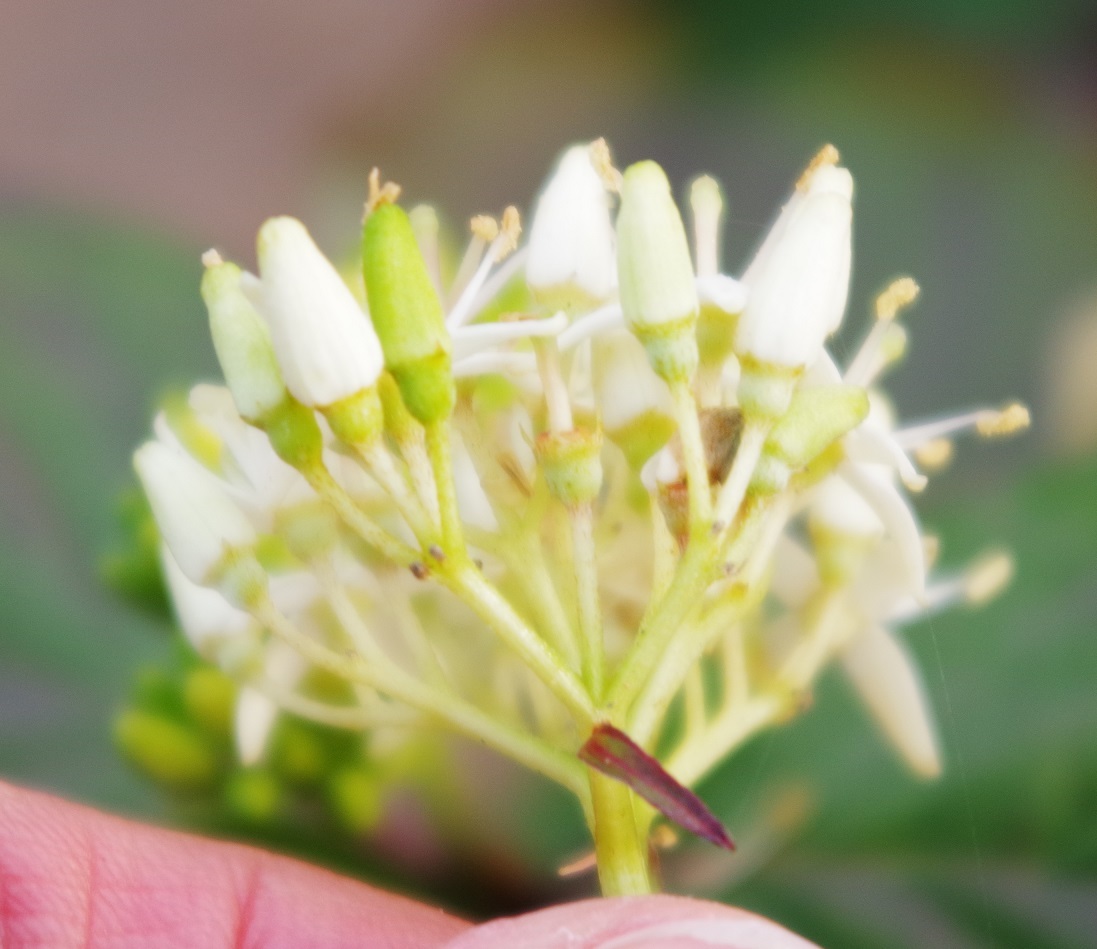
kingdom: Plantae
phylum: Tracheophyta
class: Magnoliopsida
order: Cornales
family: Cornaceae
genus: Cornus
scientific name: Cornus sanguinea
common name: Dogwood
